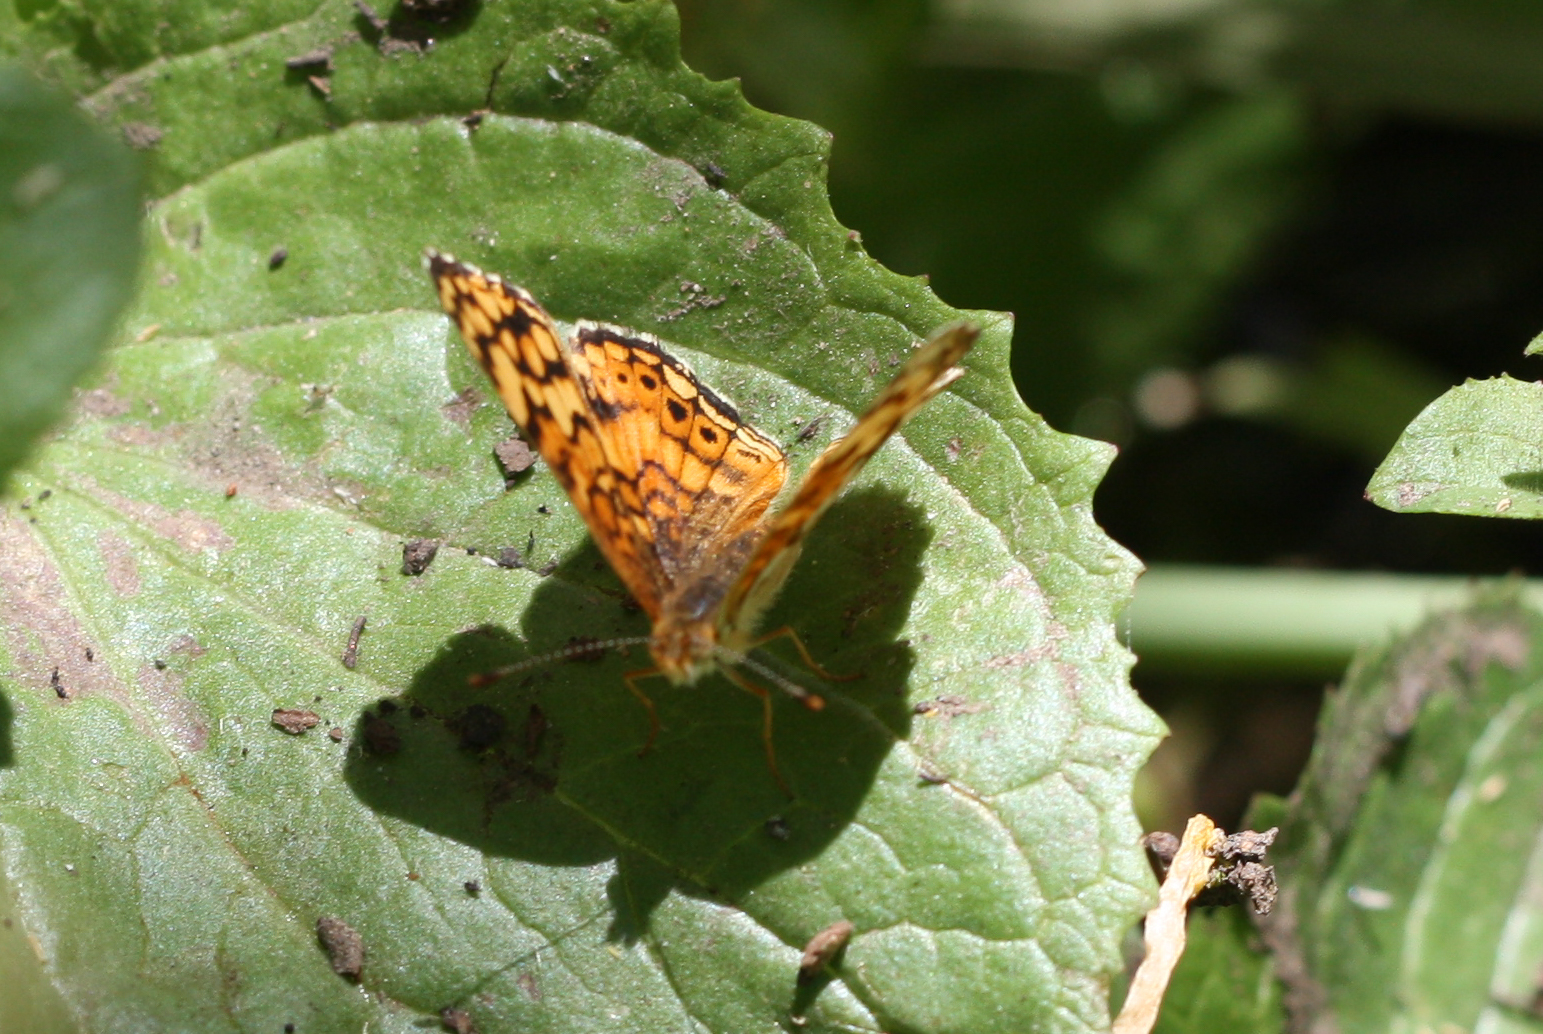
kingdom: Animalia
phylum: Arthropoda
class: Insecta
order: Lepidoptera
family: Nymphalidae
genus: Eresia
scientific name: Eresia aveyrona
